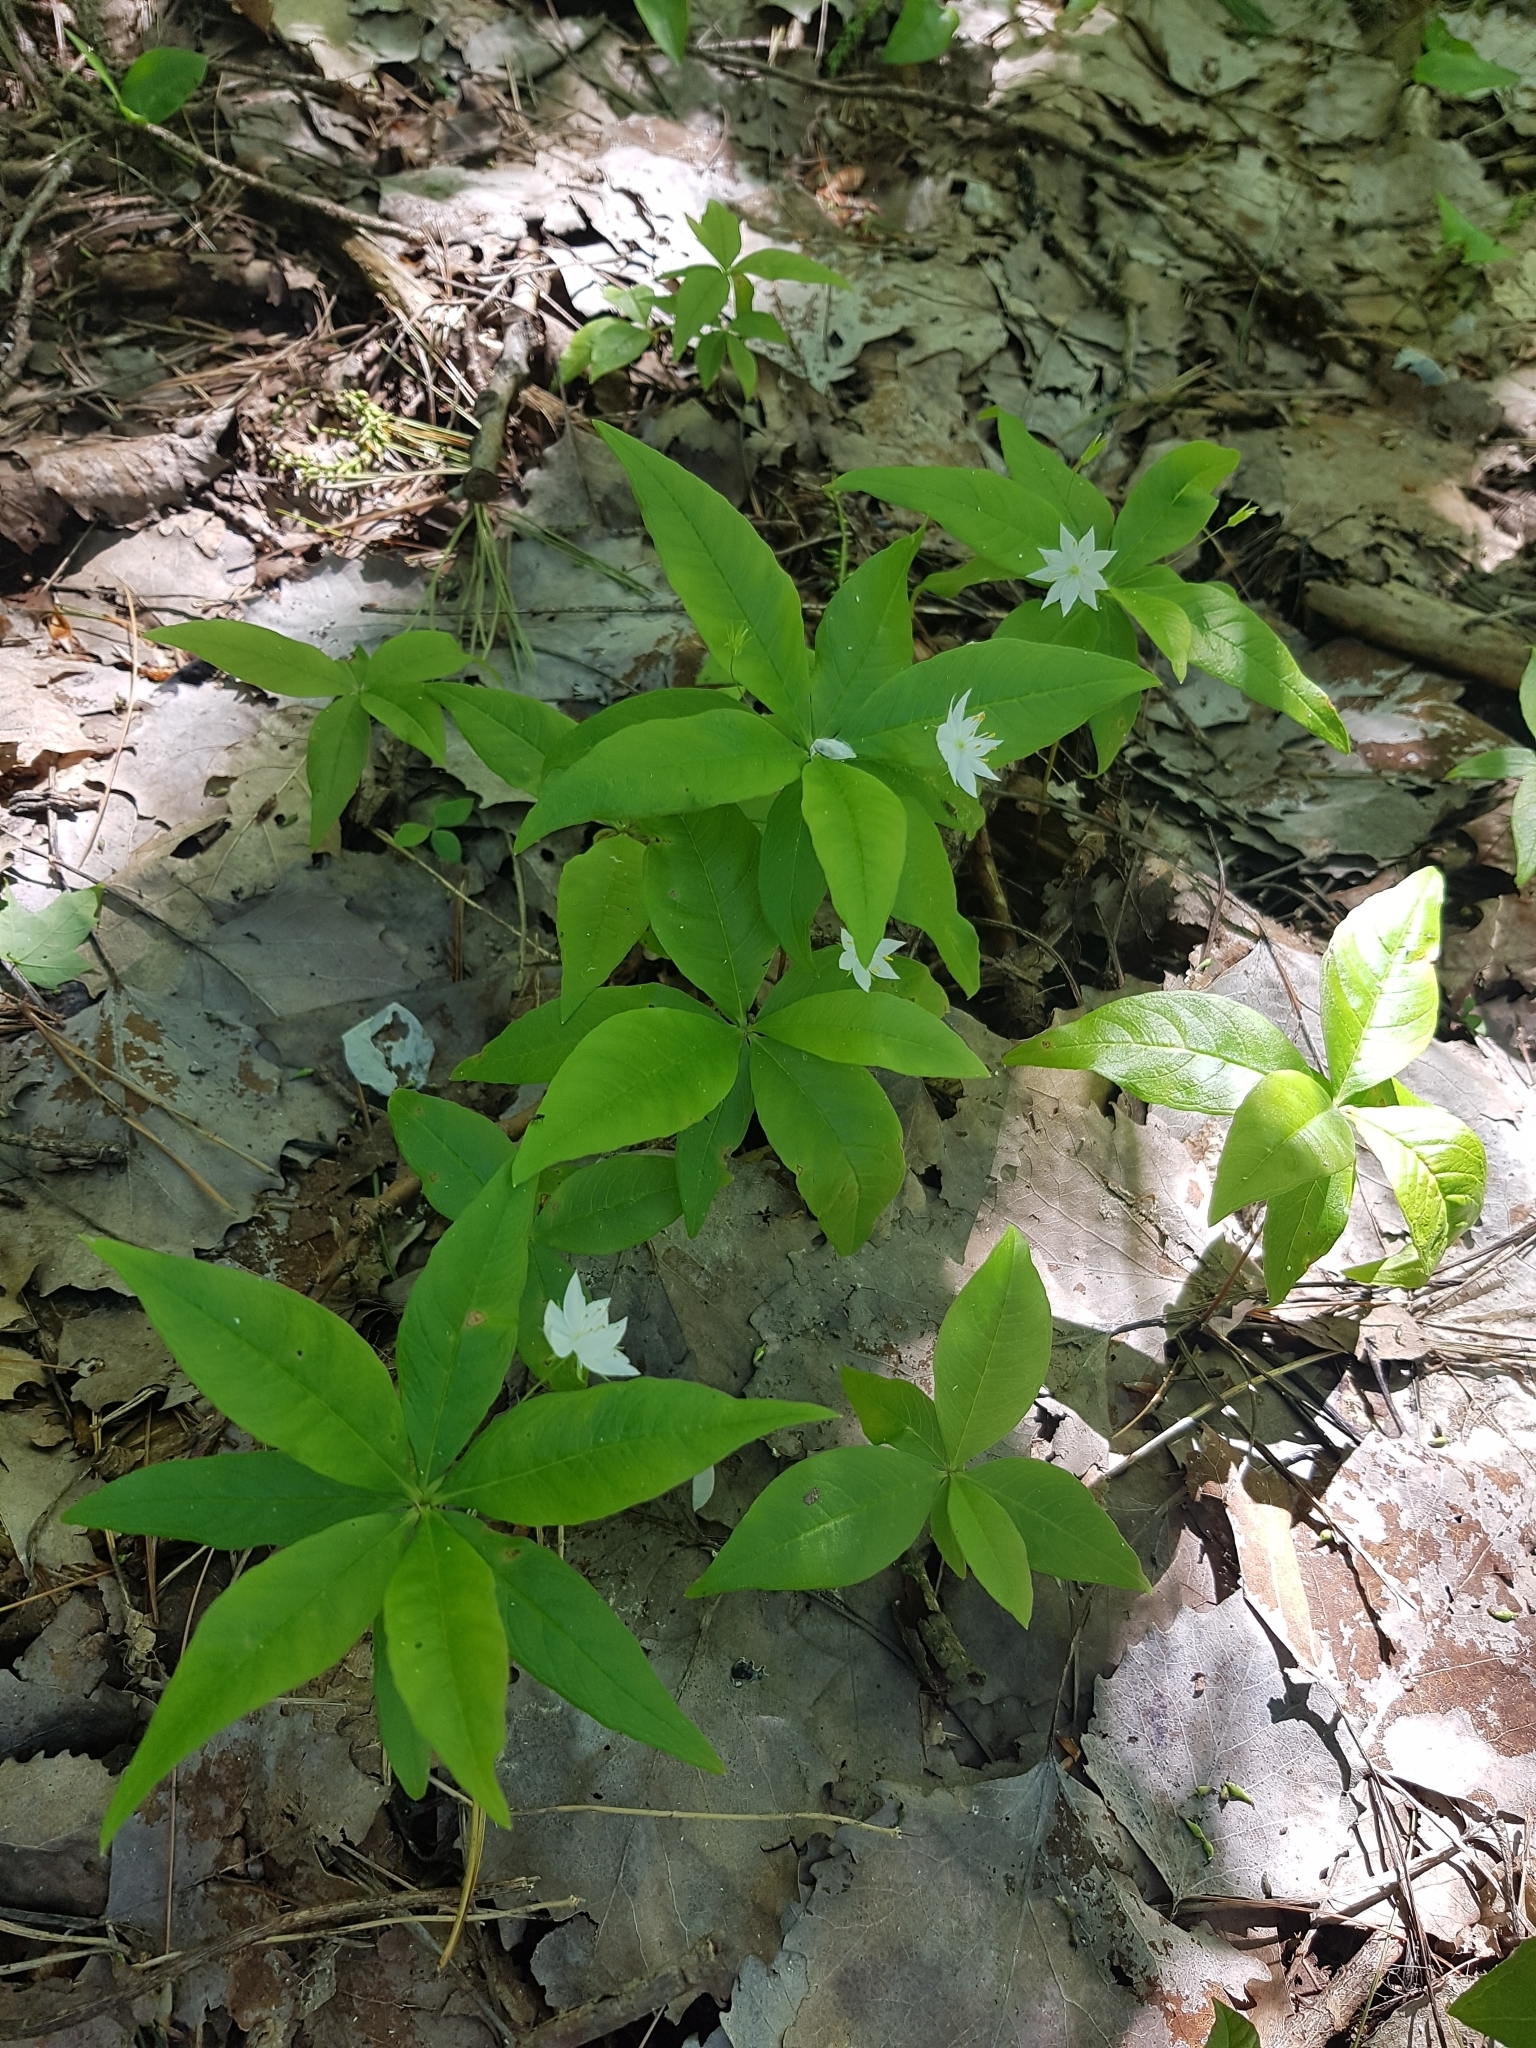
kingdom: Plantae
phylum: Tracheophyta
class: Magnoliopsida
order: Ericales
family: Primulaceae
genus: Lysimachia
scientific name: Lysimachia borealis
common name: American starflower
